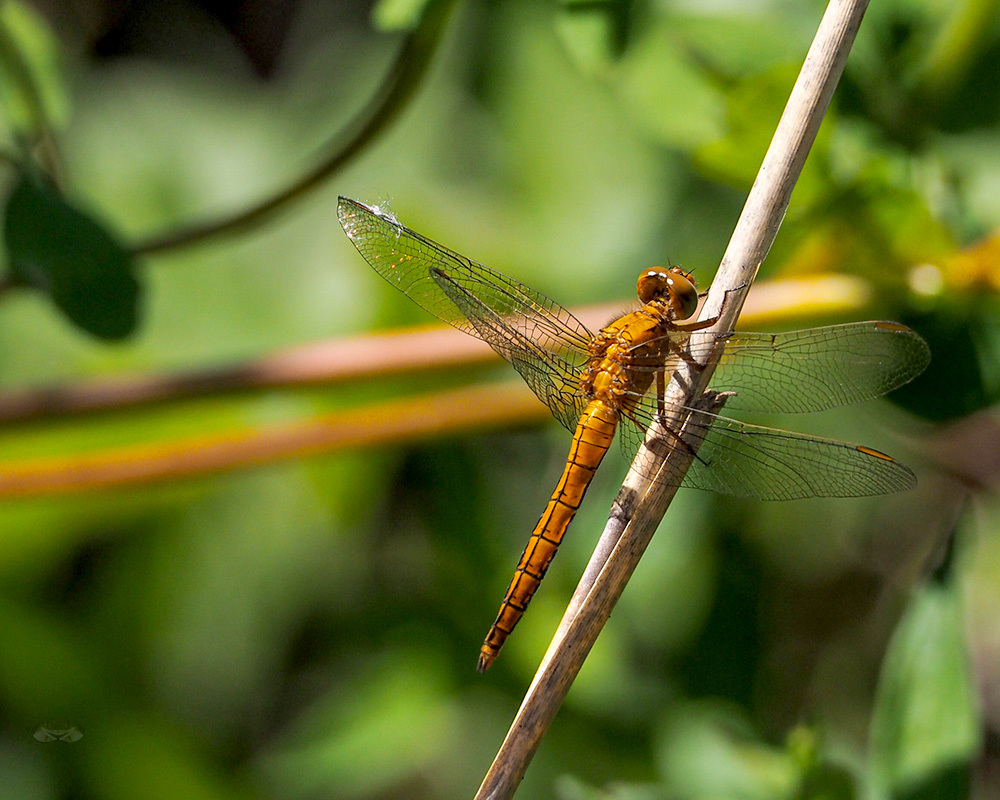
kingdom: Animalia
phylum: Arthropoda
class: Insecta
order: Odonata
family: Libellulidae
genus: Orthetrum
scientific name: Orthetrum coerulescens
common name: Keeled skimmer
